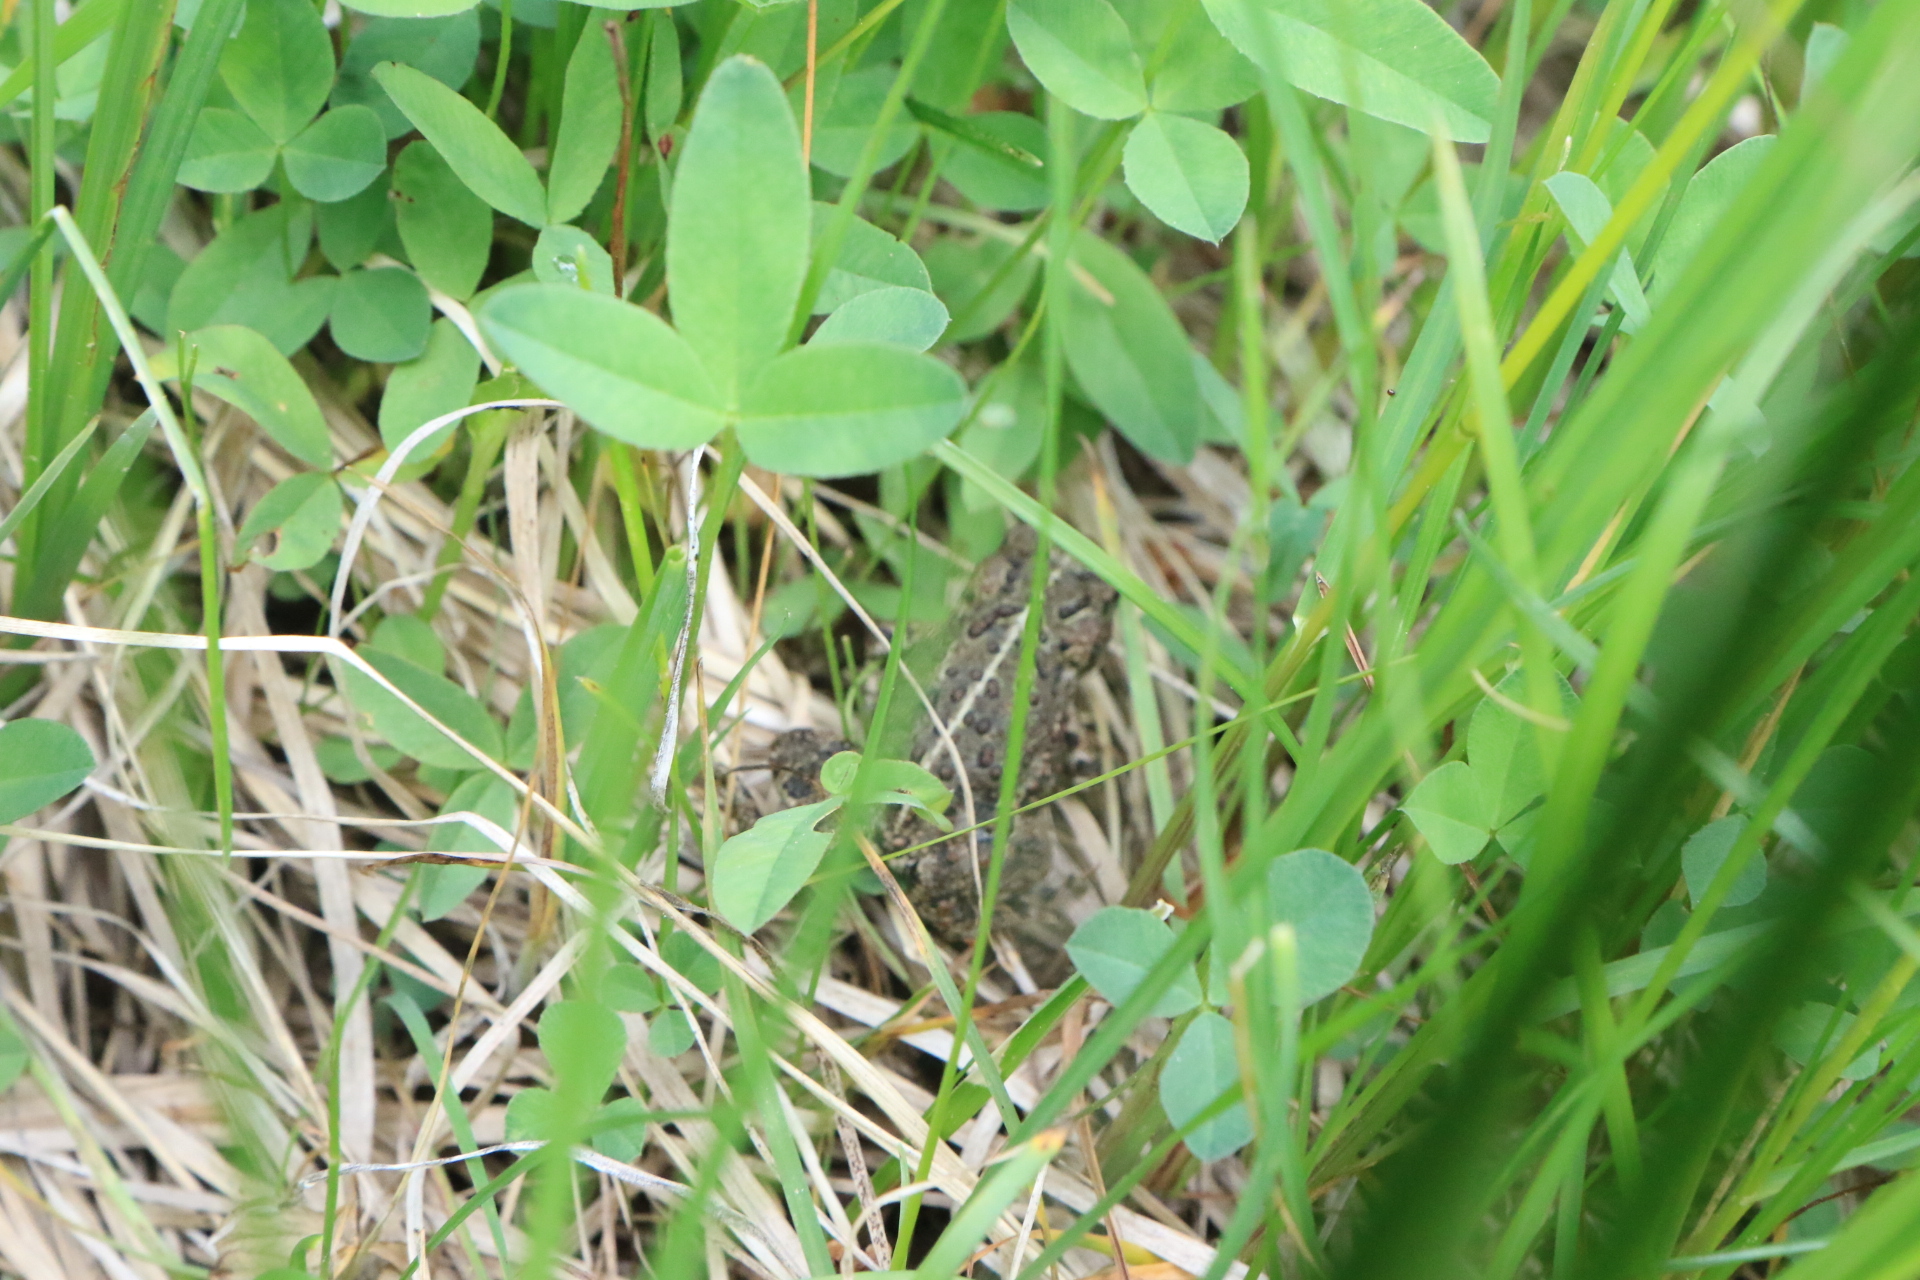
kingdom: Animalia
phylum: Chordata
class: Amphibia
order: Anura
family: Bufonidae
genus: Anaxyrus
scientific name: Anaxyrus boreas
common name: Western toad
